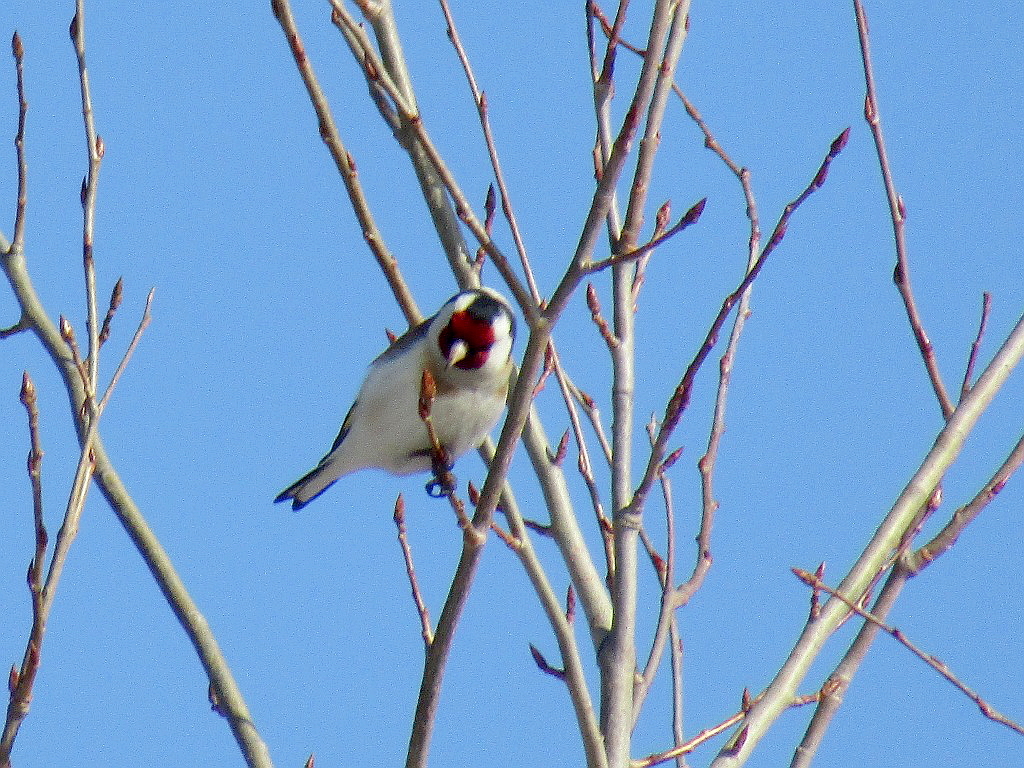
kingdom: Animalia
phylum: Chordata
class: Aves
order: Passeriformes
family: Fringillidae
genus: Carduelis
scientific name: Carduelis carduelis
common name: European goldfinch
